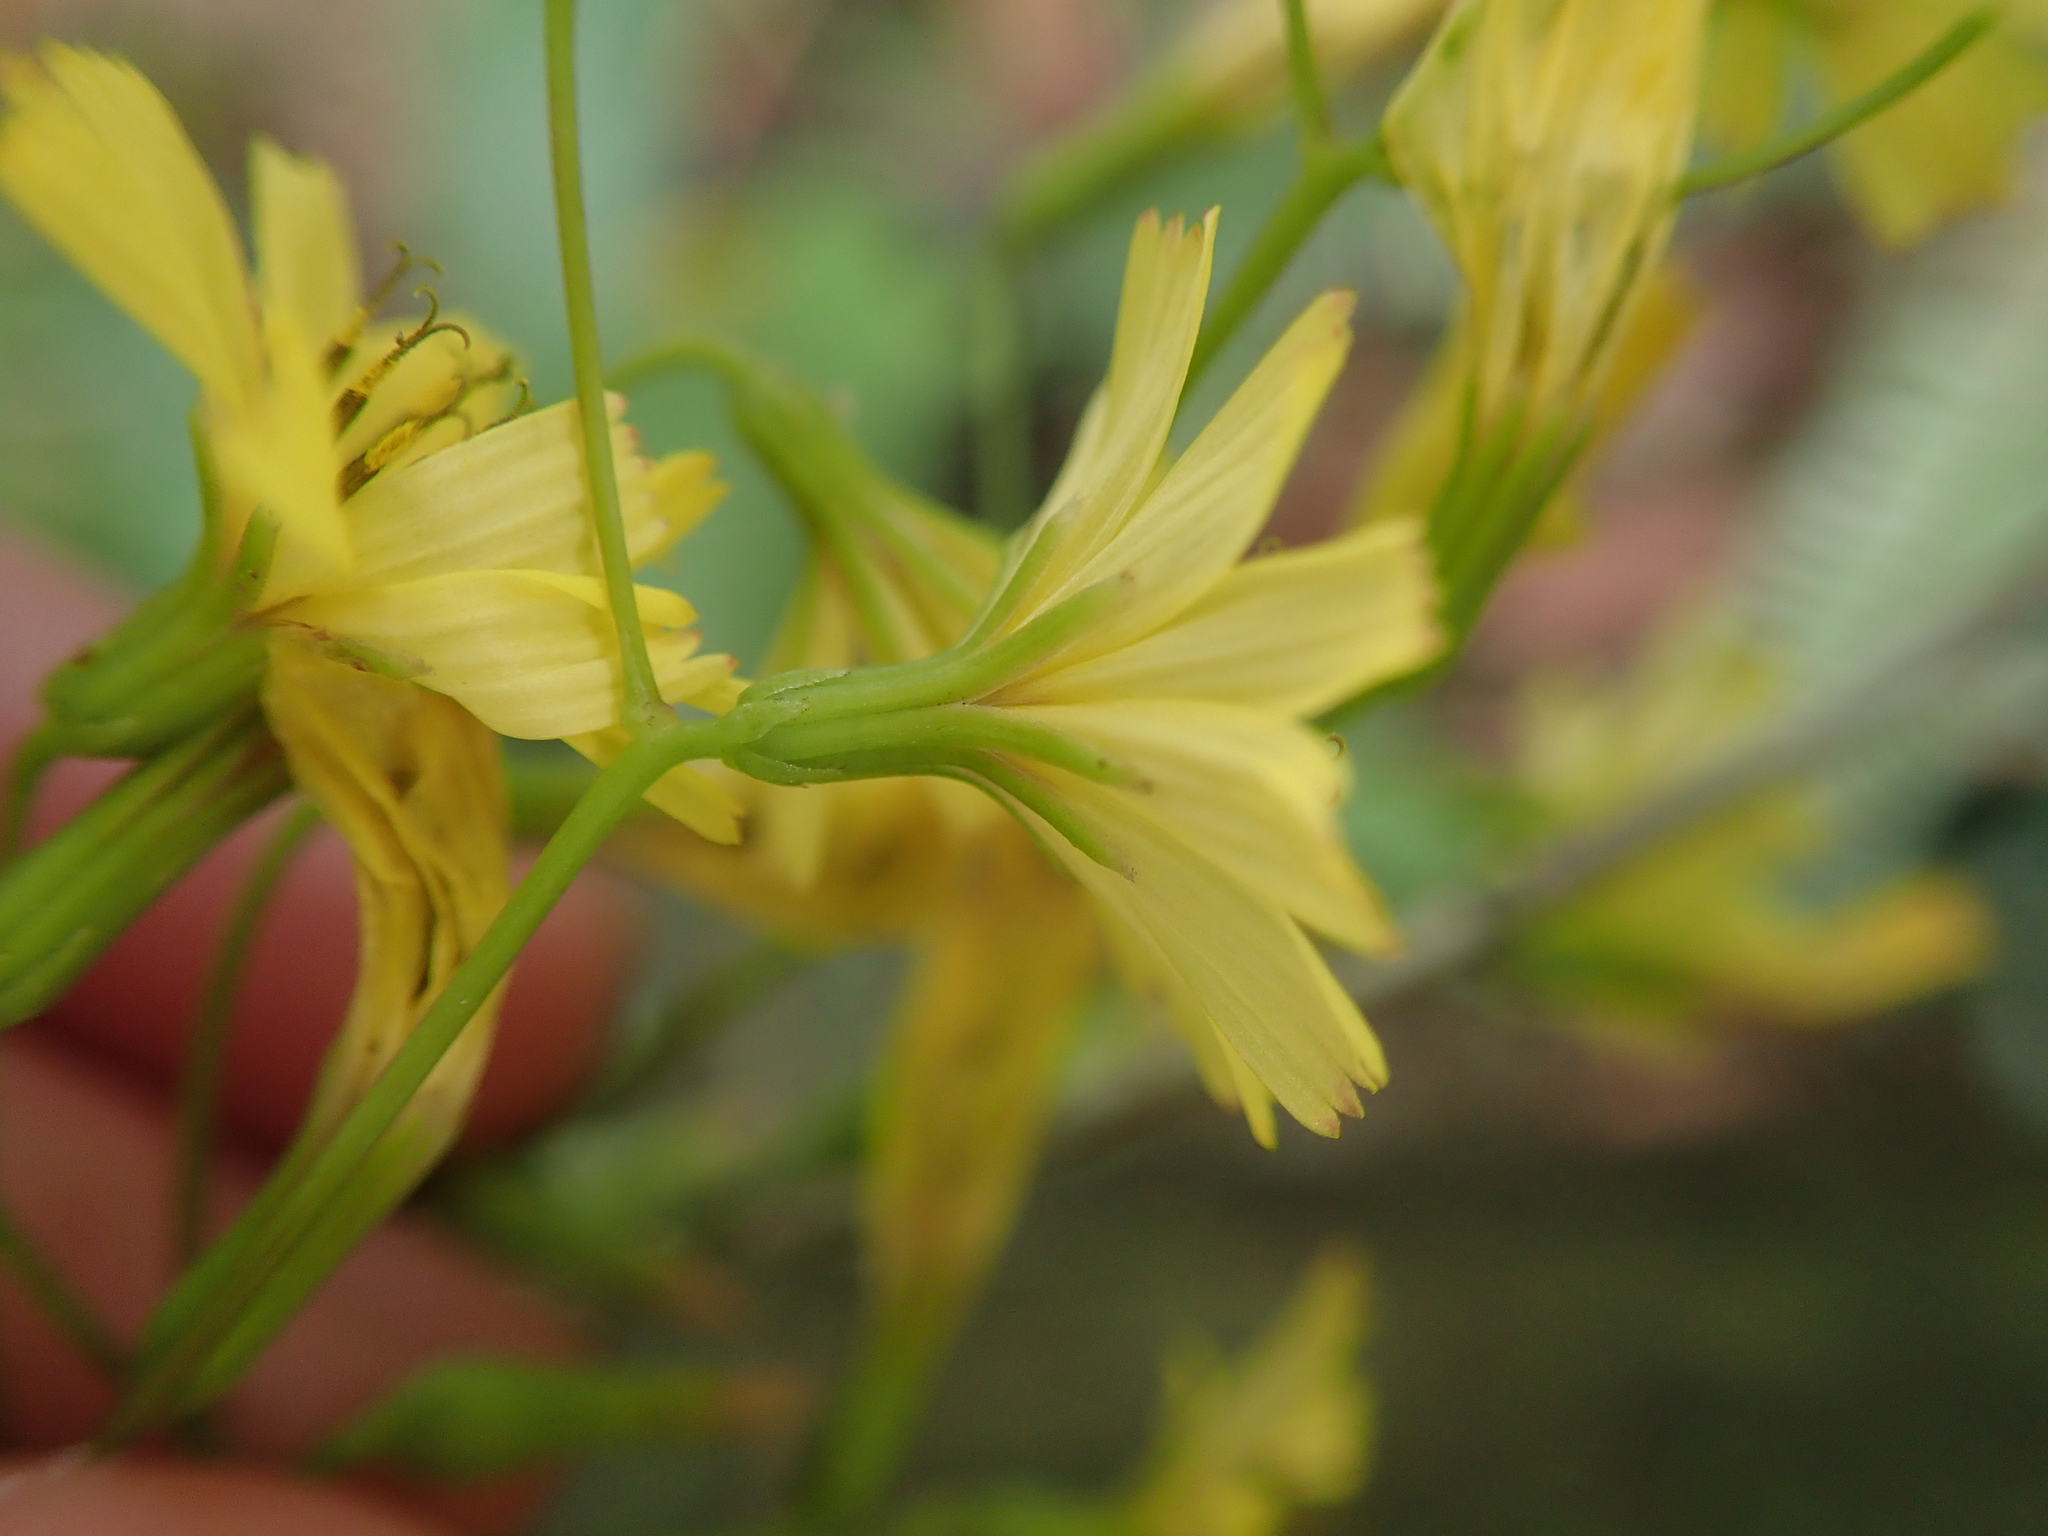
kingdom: Plantae
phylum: Tracheophyta
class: Magnoliopsida
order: Asterales
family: Asteraceae
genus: Ixeridium
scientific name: Ixeridium laevigatum
